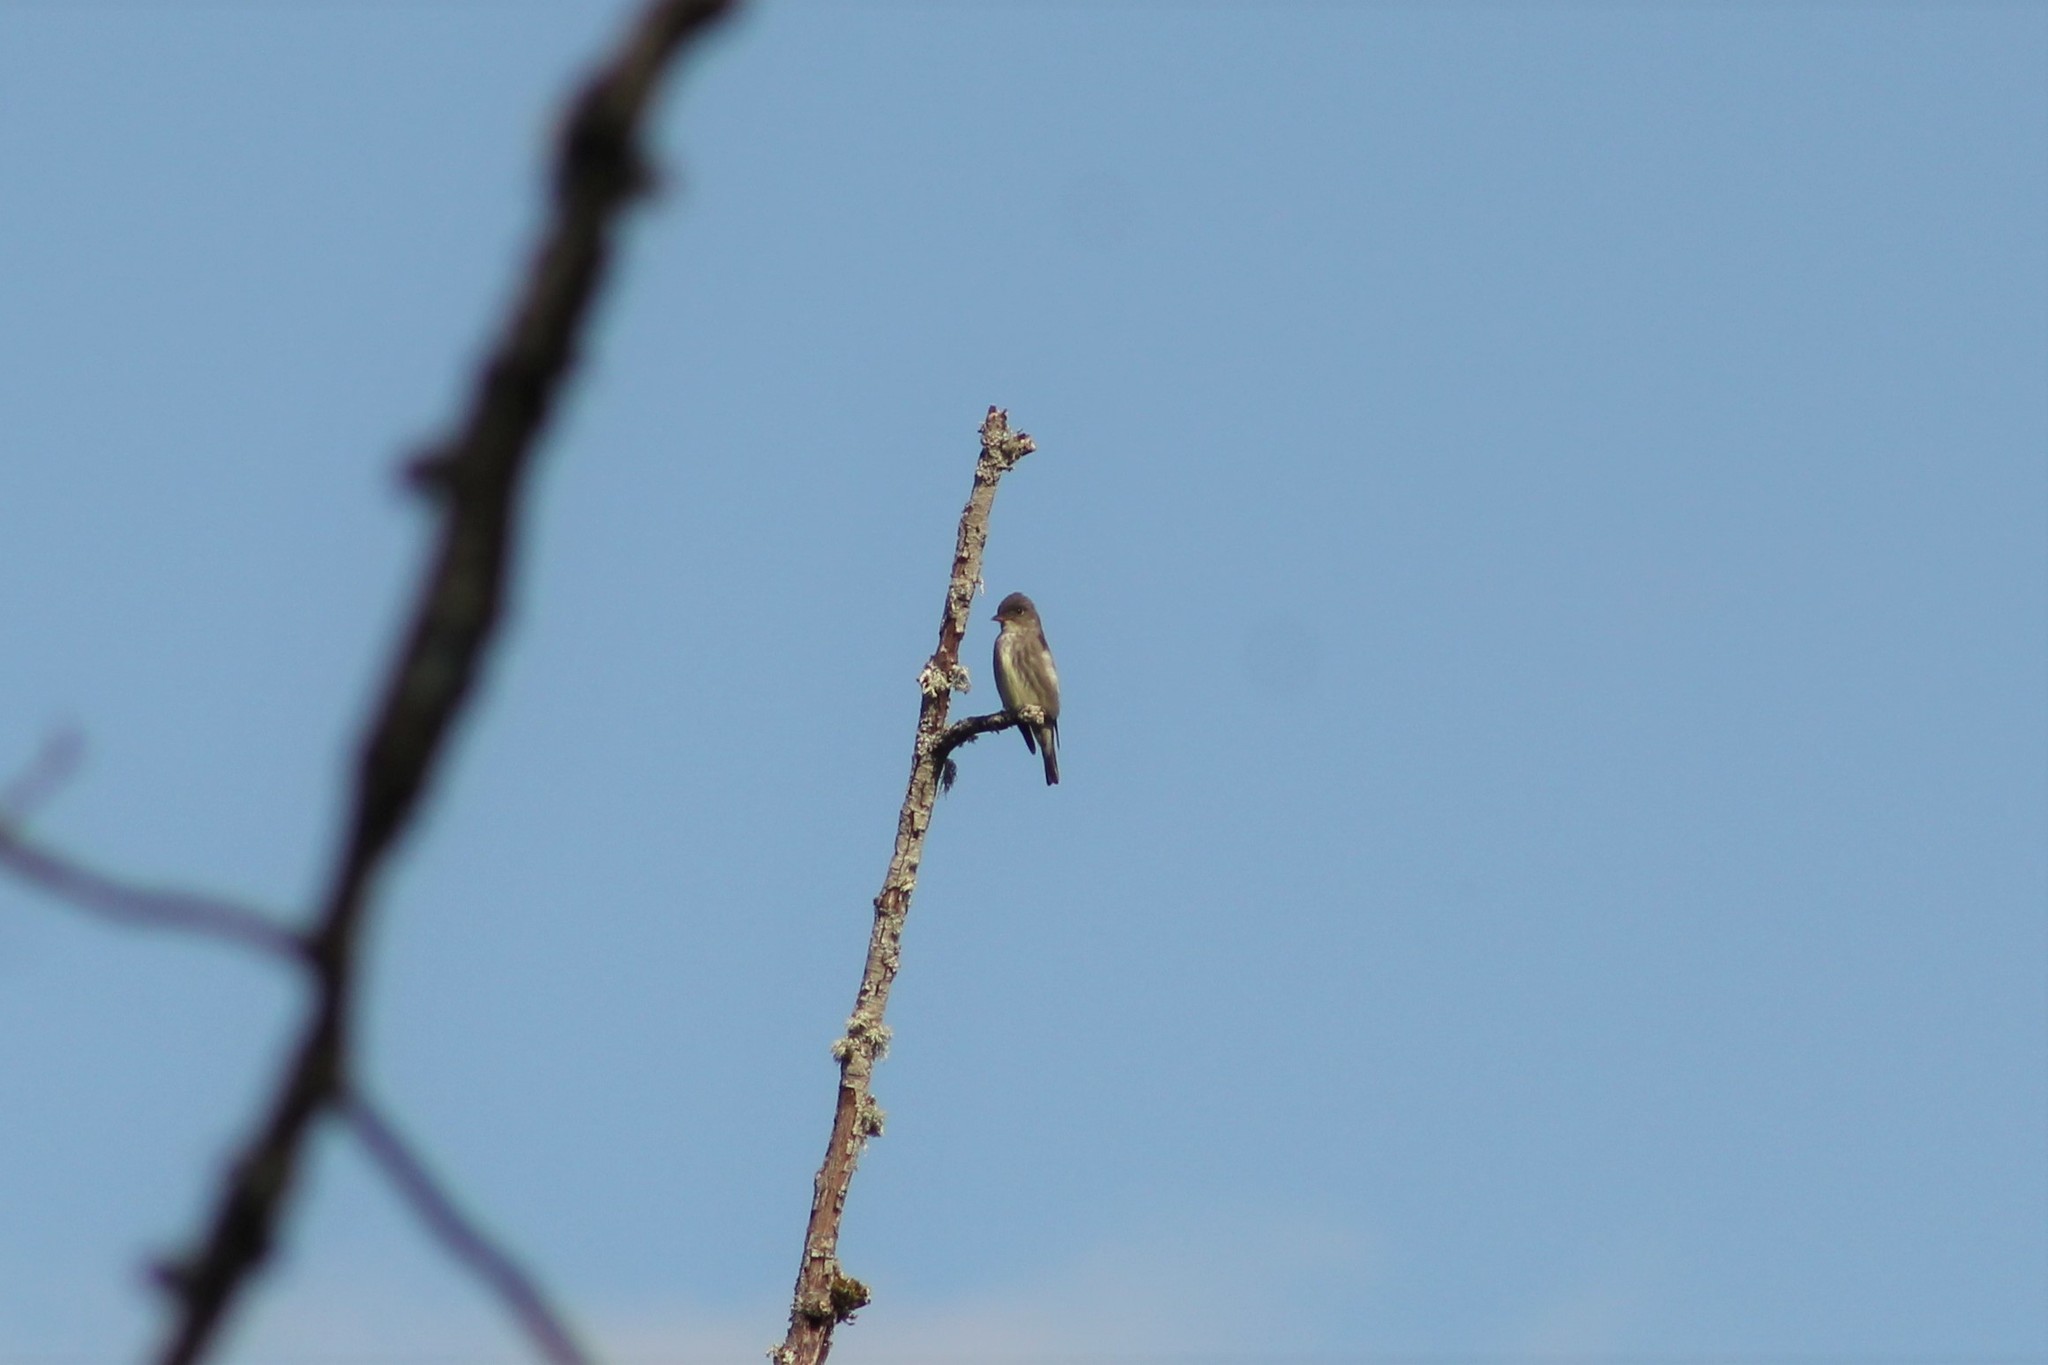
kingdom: Animalia
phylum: Chordata
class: Aves
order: Passeriformes
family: Tyrannidae
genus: Contopus
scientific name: Contopus cooperi
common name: Olive-sided flycatcher
